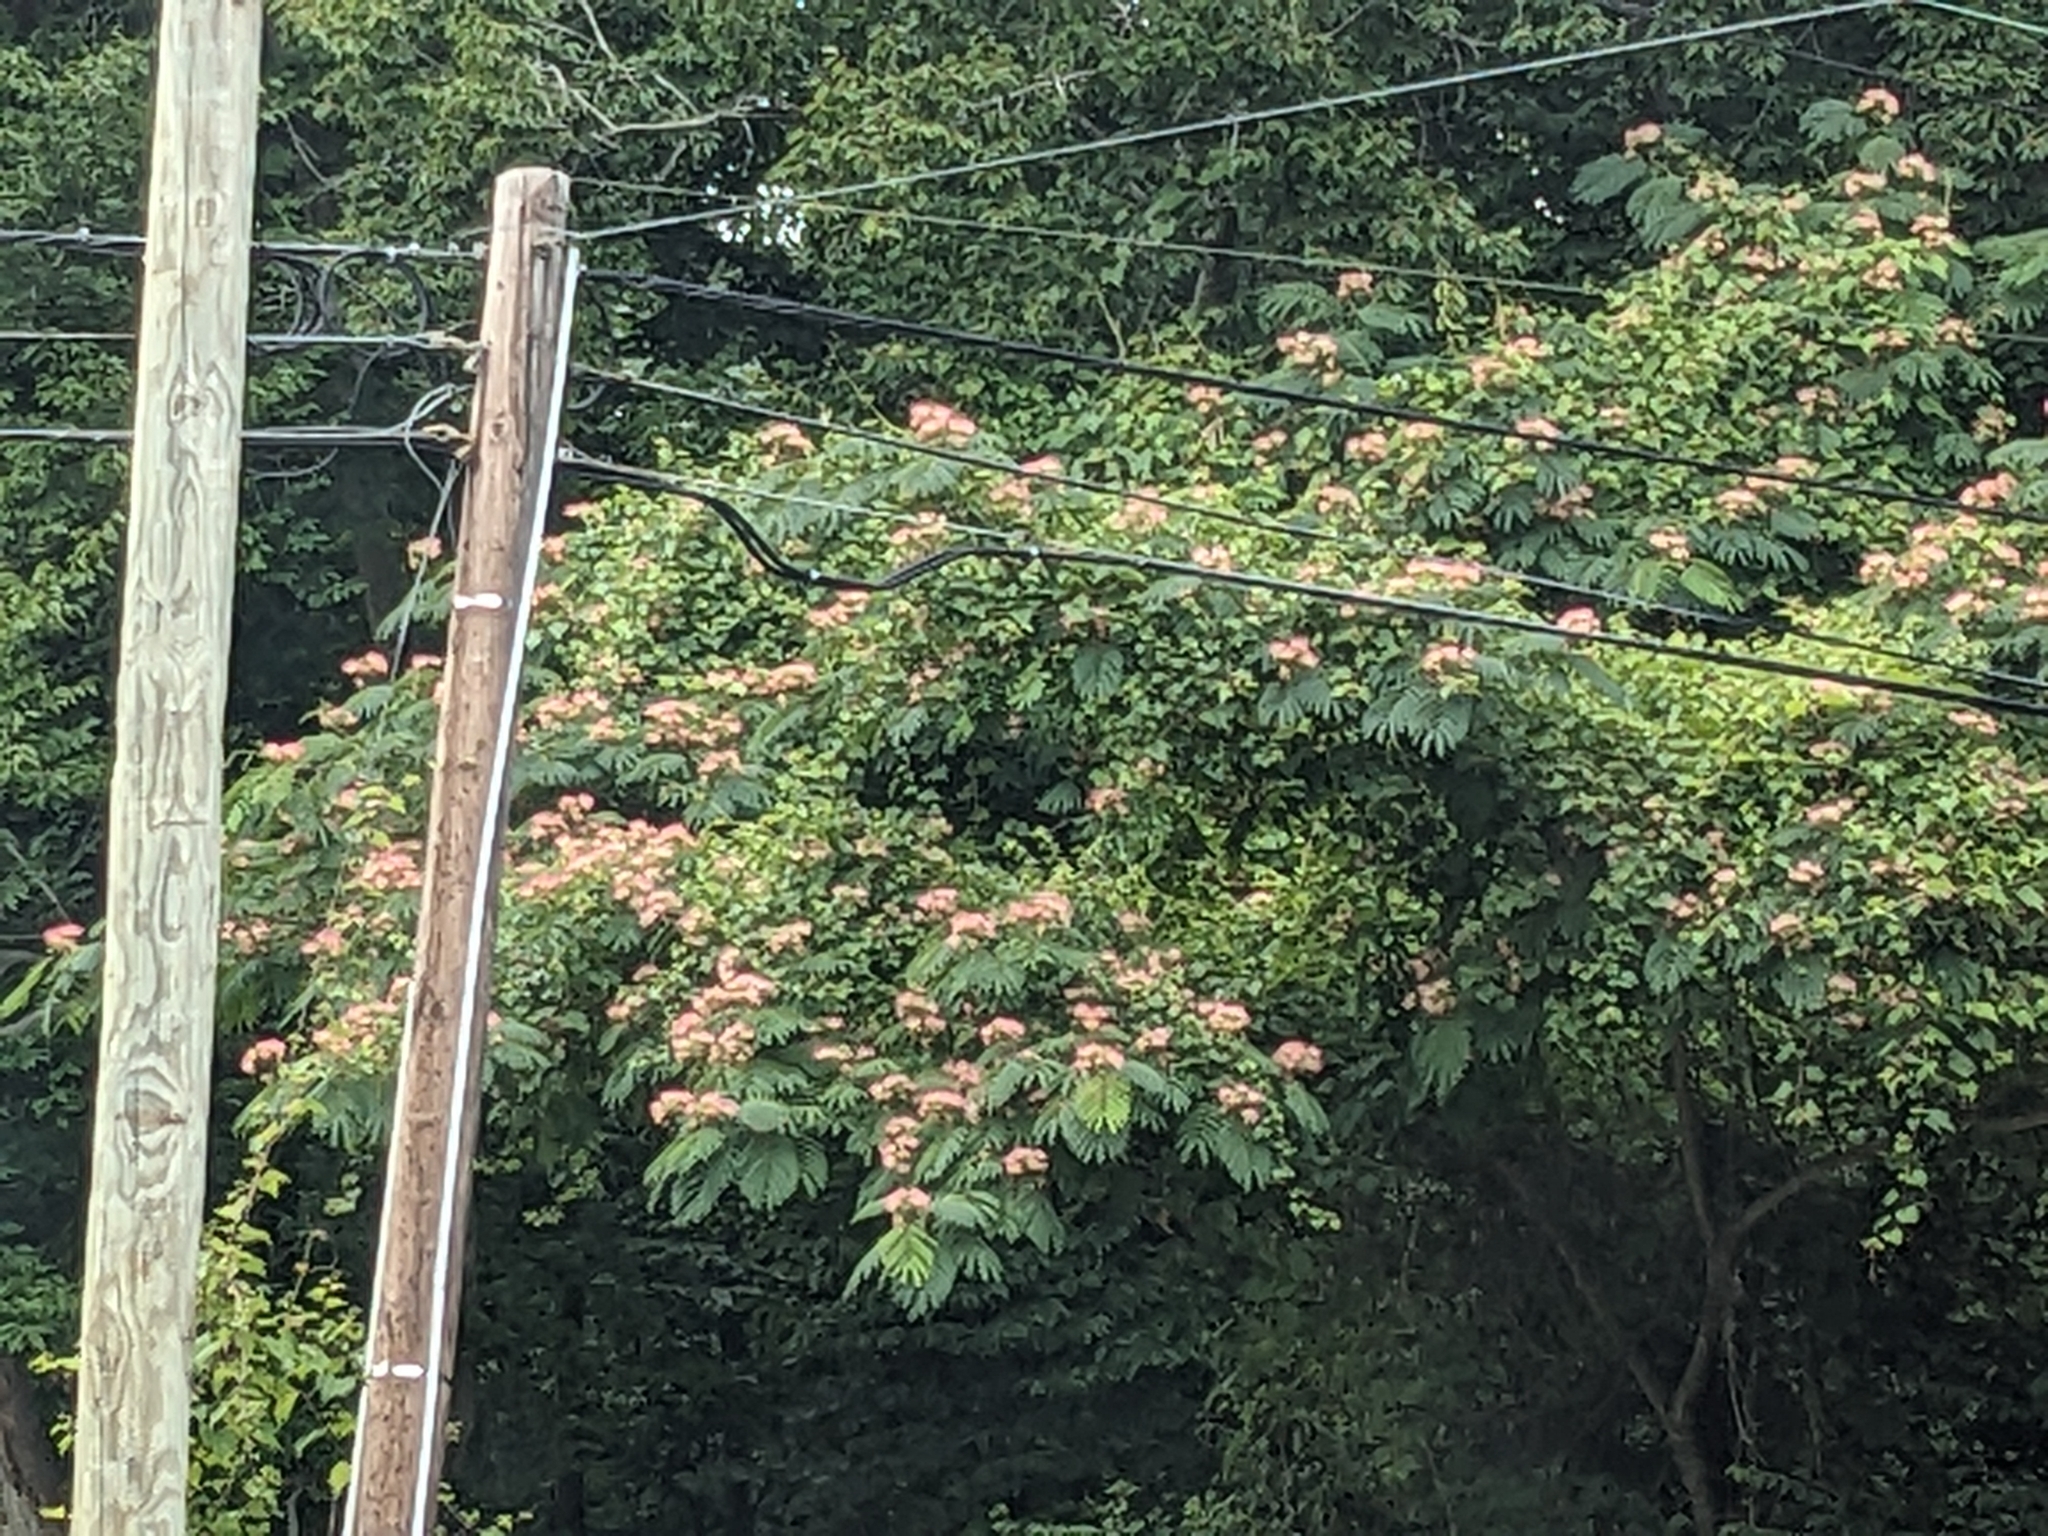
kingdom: Plantae
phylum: Tracheophyta
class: Magnoliopsida
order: Fabales
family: Fabaceae
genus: Albizia
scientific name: Albizia julibrissin
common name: Silktree
